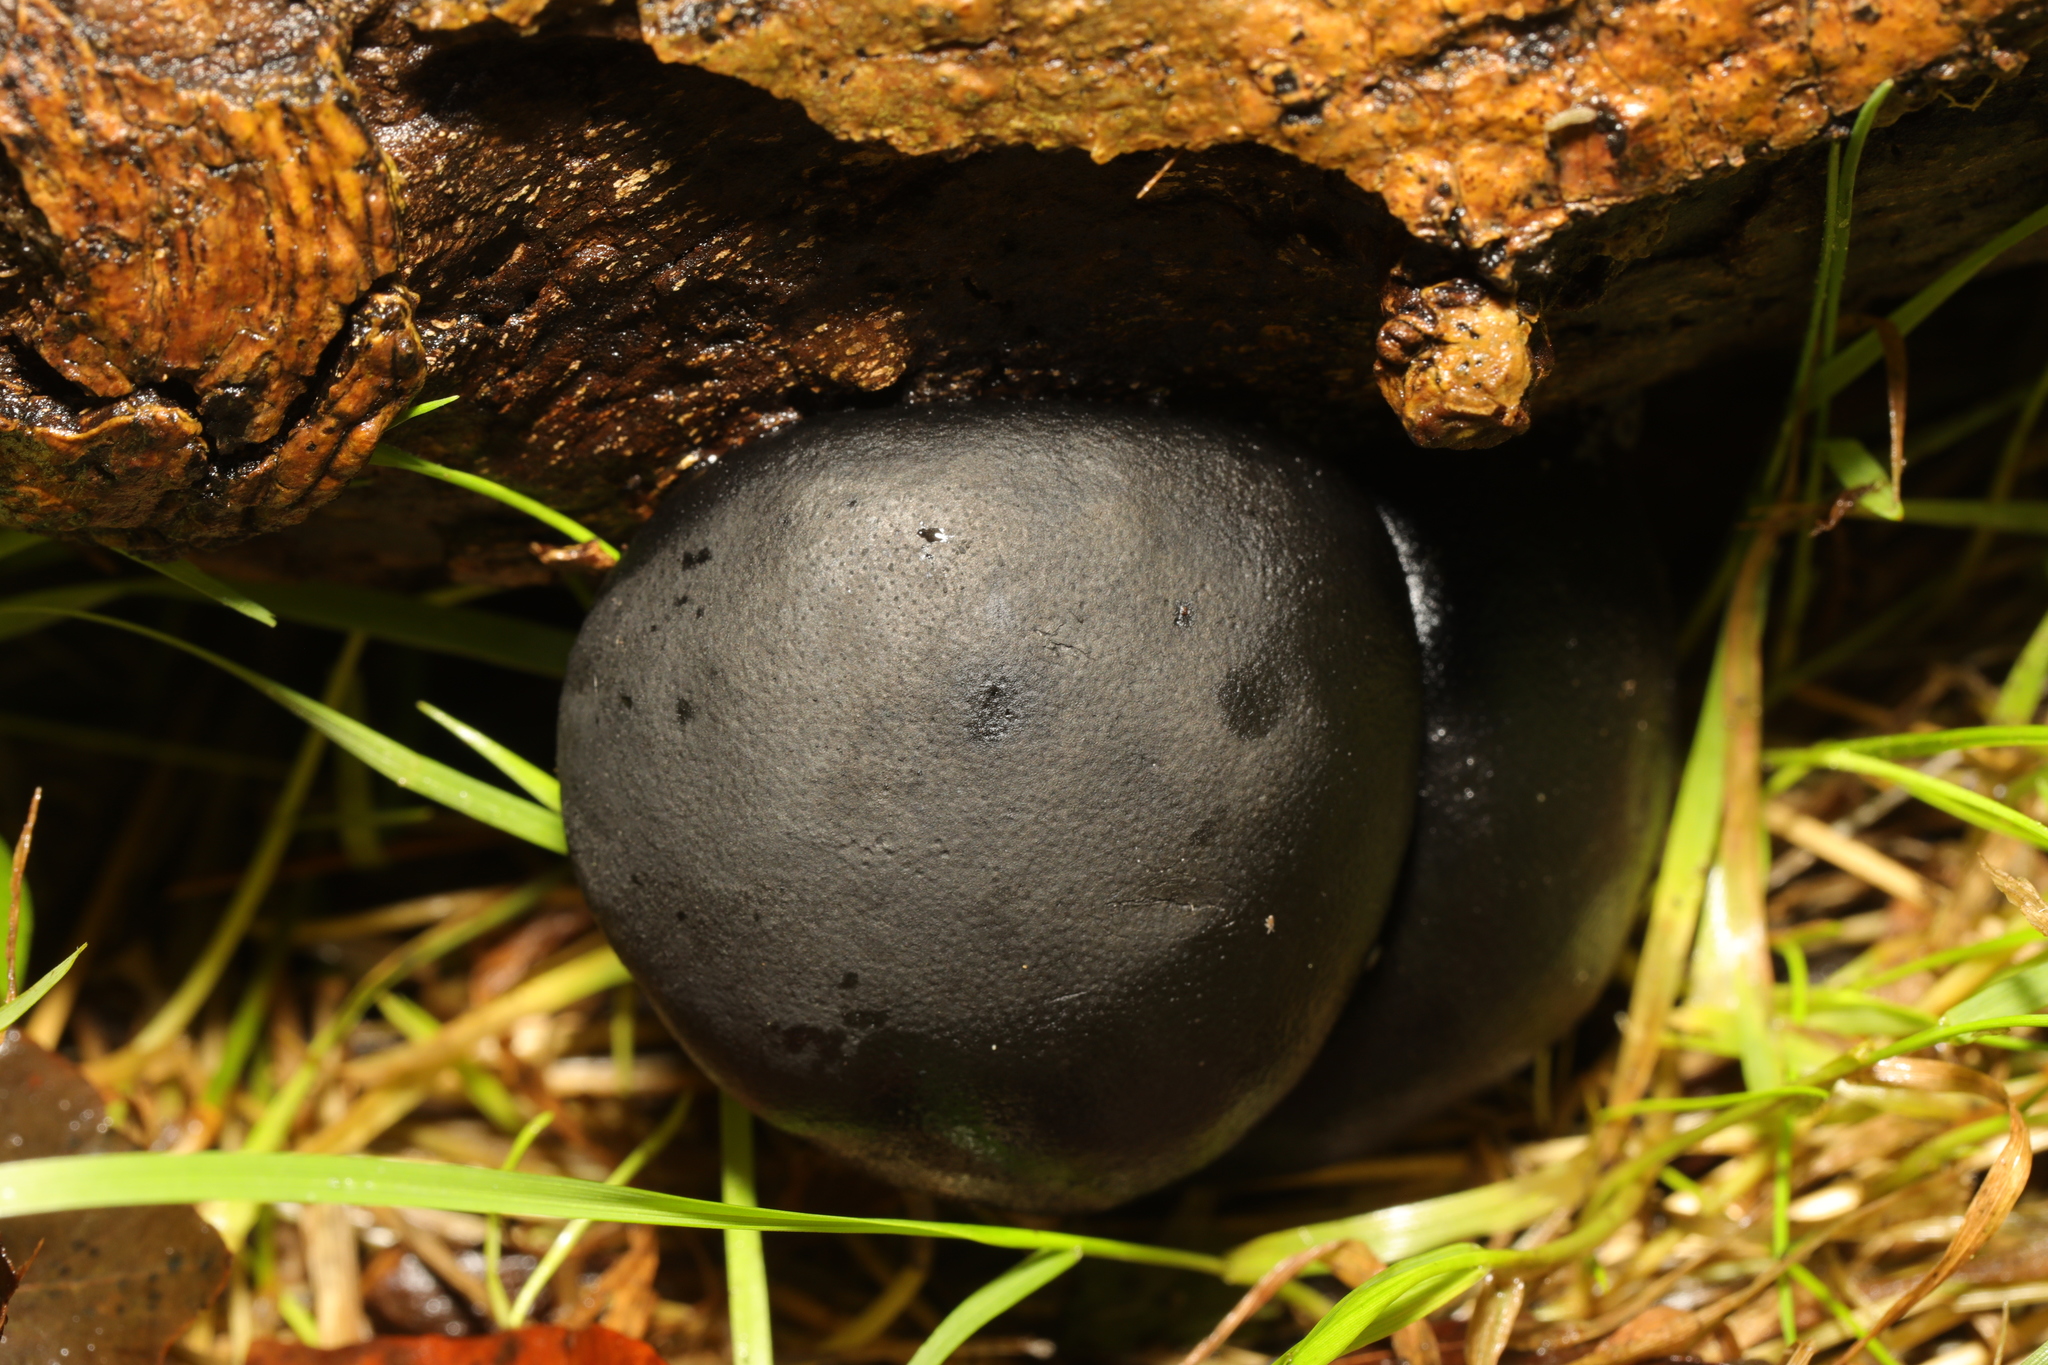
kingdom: Fungi
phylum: Ascomycota
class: Sordariomycetes
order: Xylariales
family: Hypoxylaceae
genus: Daldinia
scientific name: Daldinia concentrica
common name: Cramp balls
